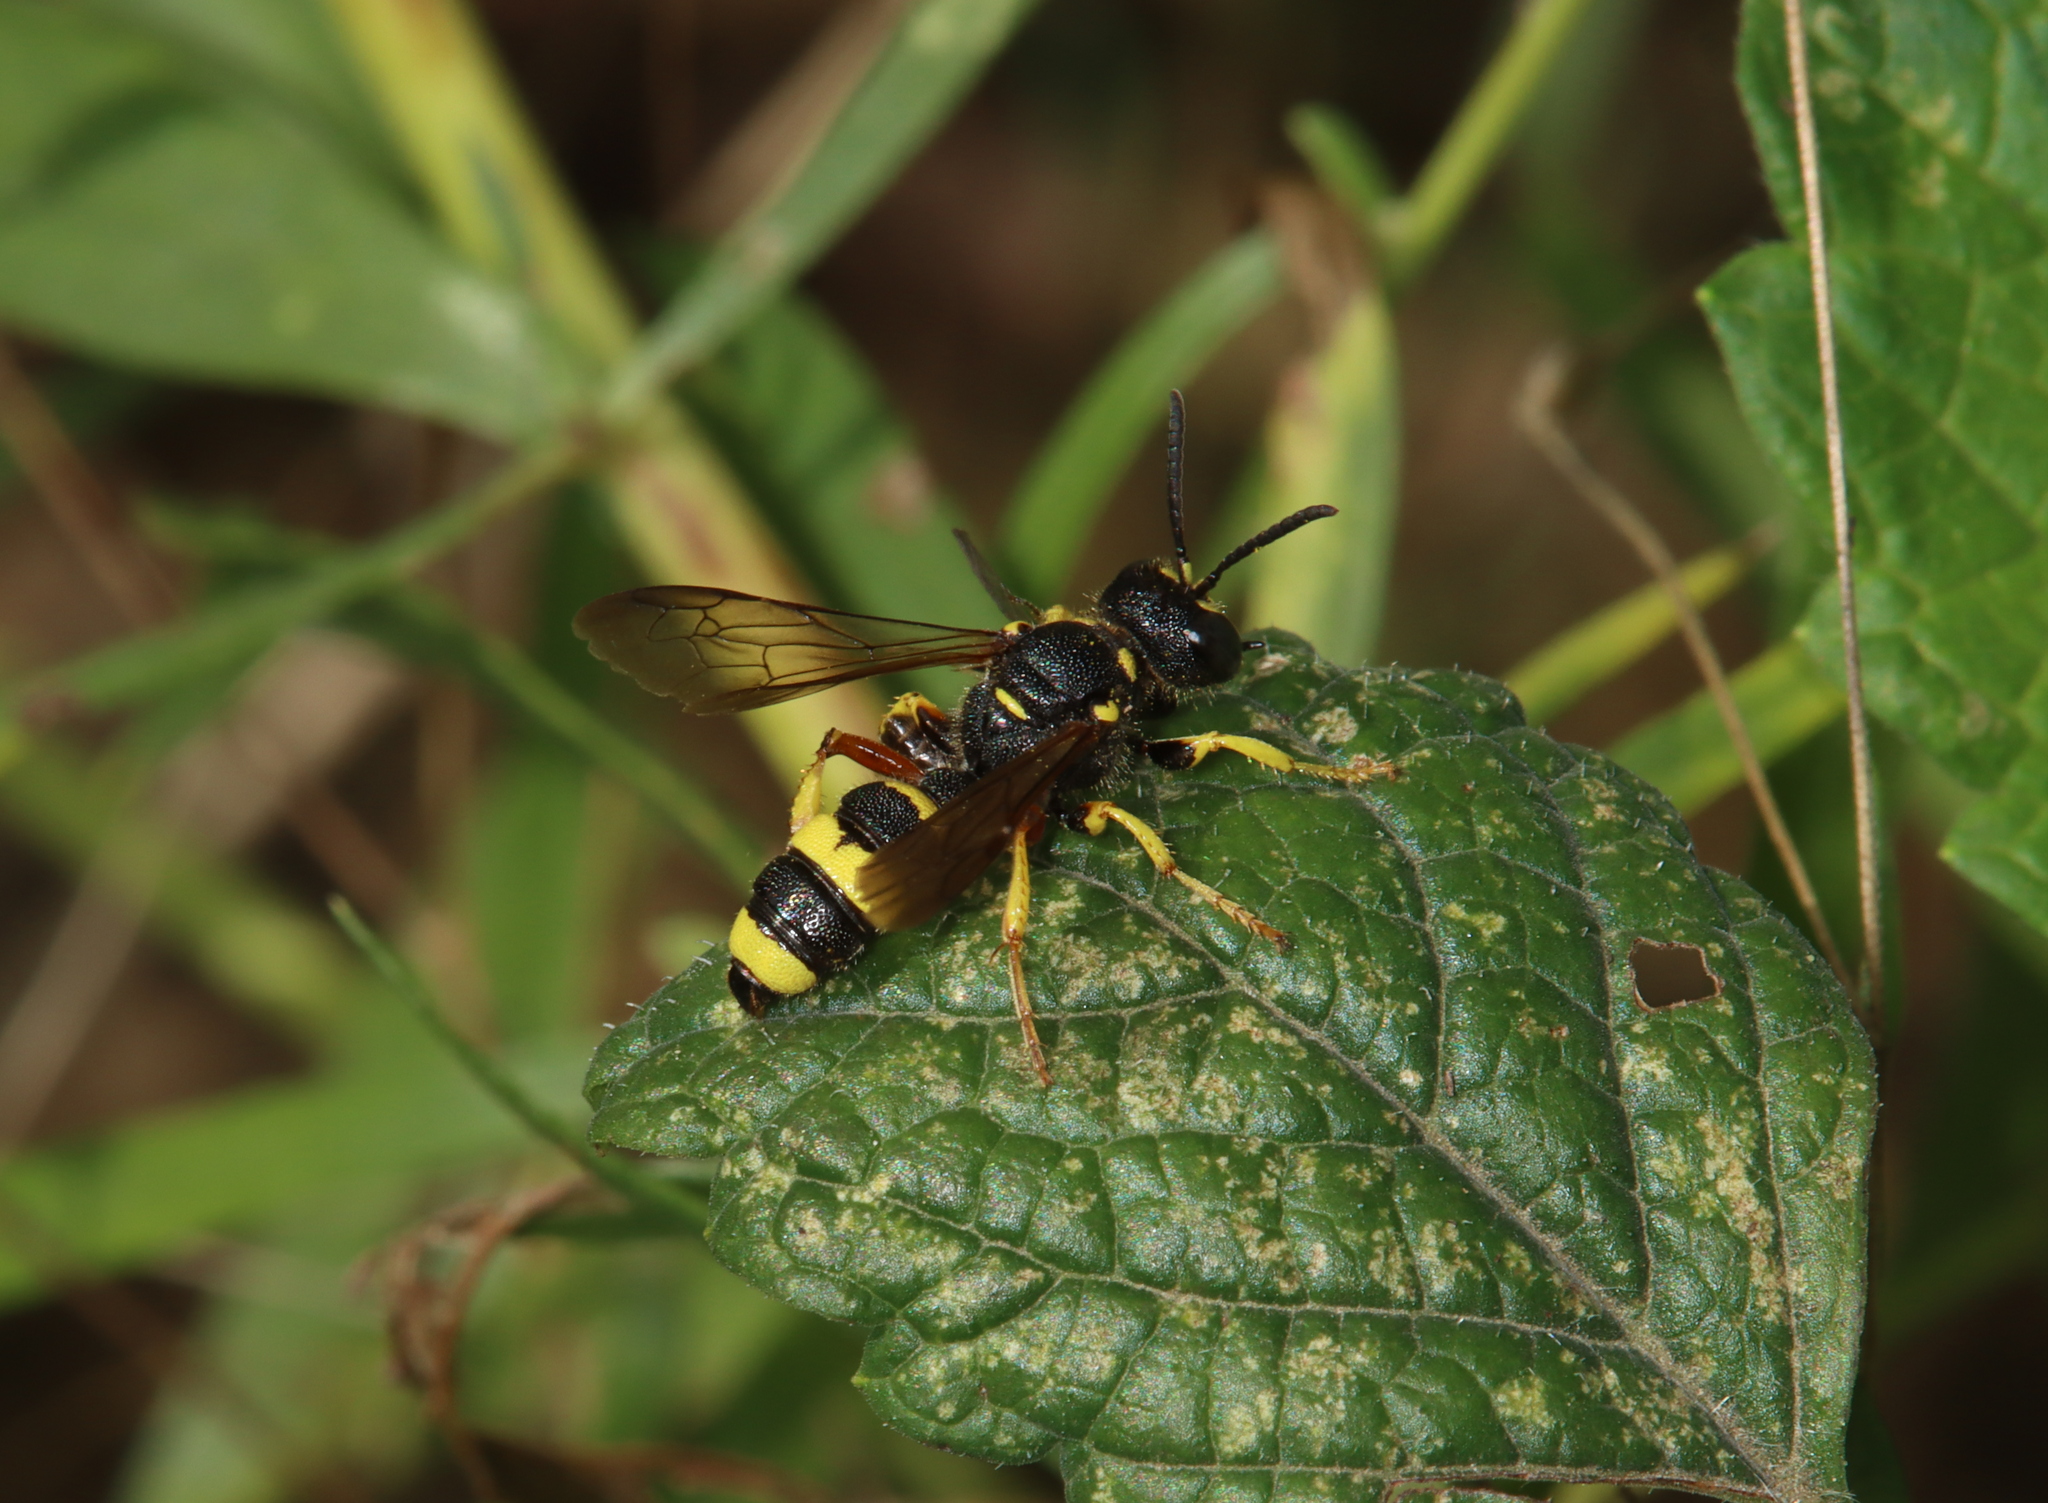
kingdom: Animalia
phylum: Arthropoda
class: Insecta
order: Hymenoptera
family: Crabronidae
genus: Cerceris
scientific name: Cerceris rybyensis
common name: Ornate tailed digger wasp
